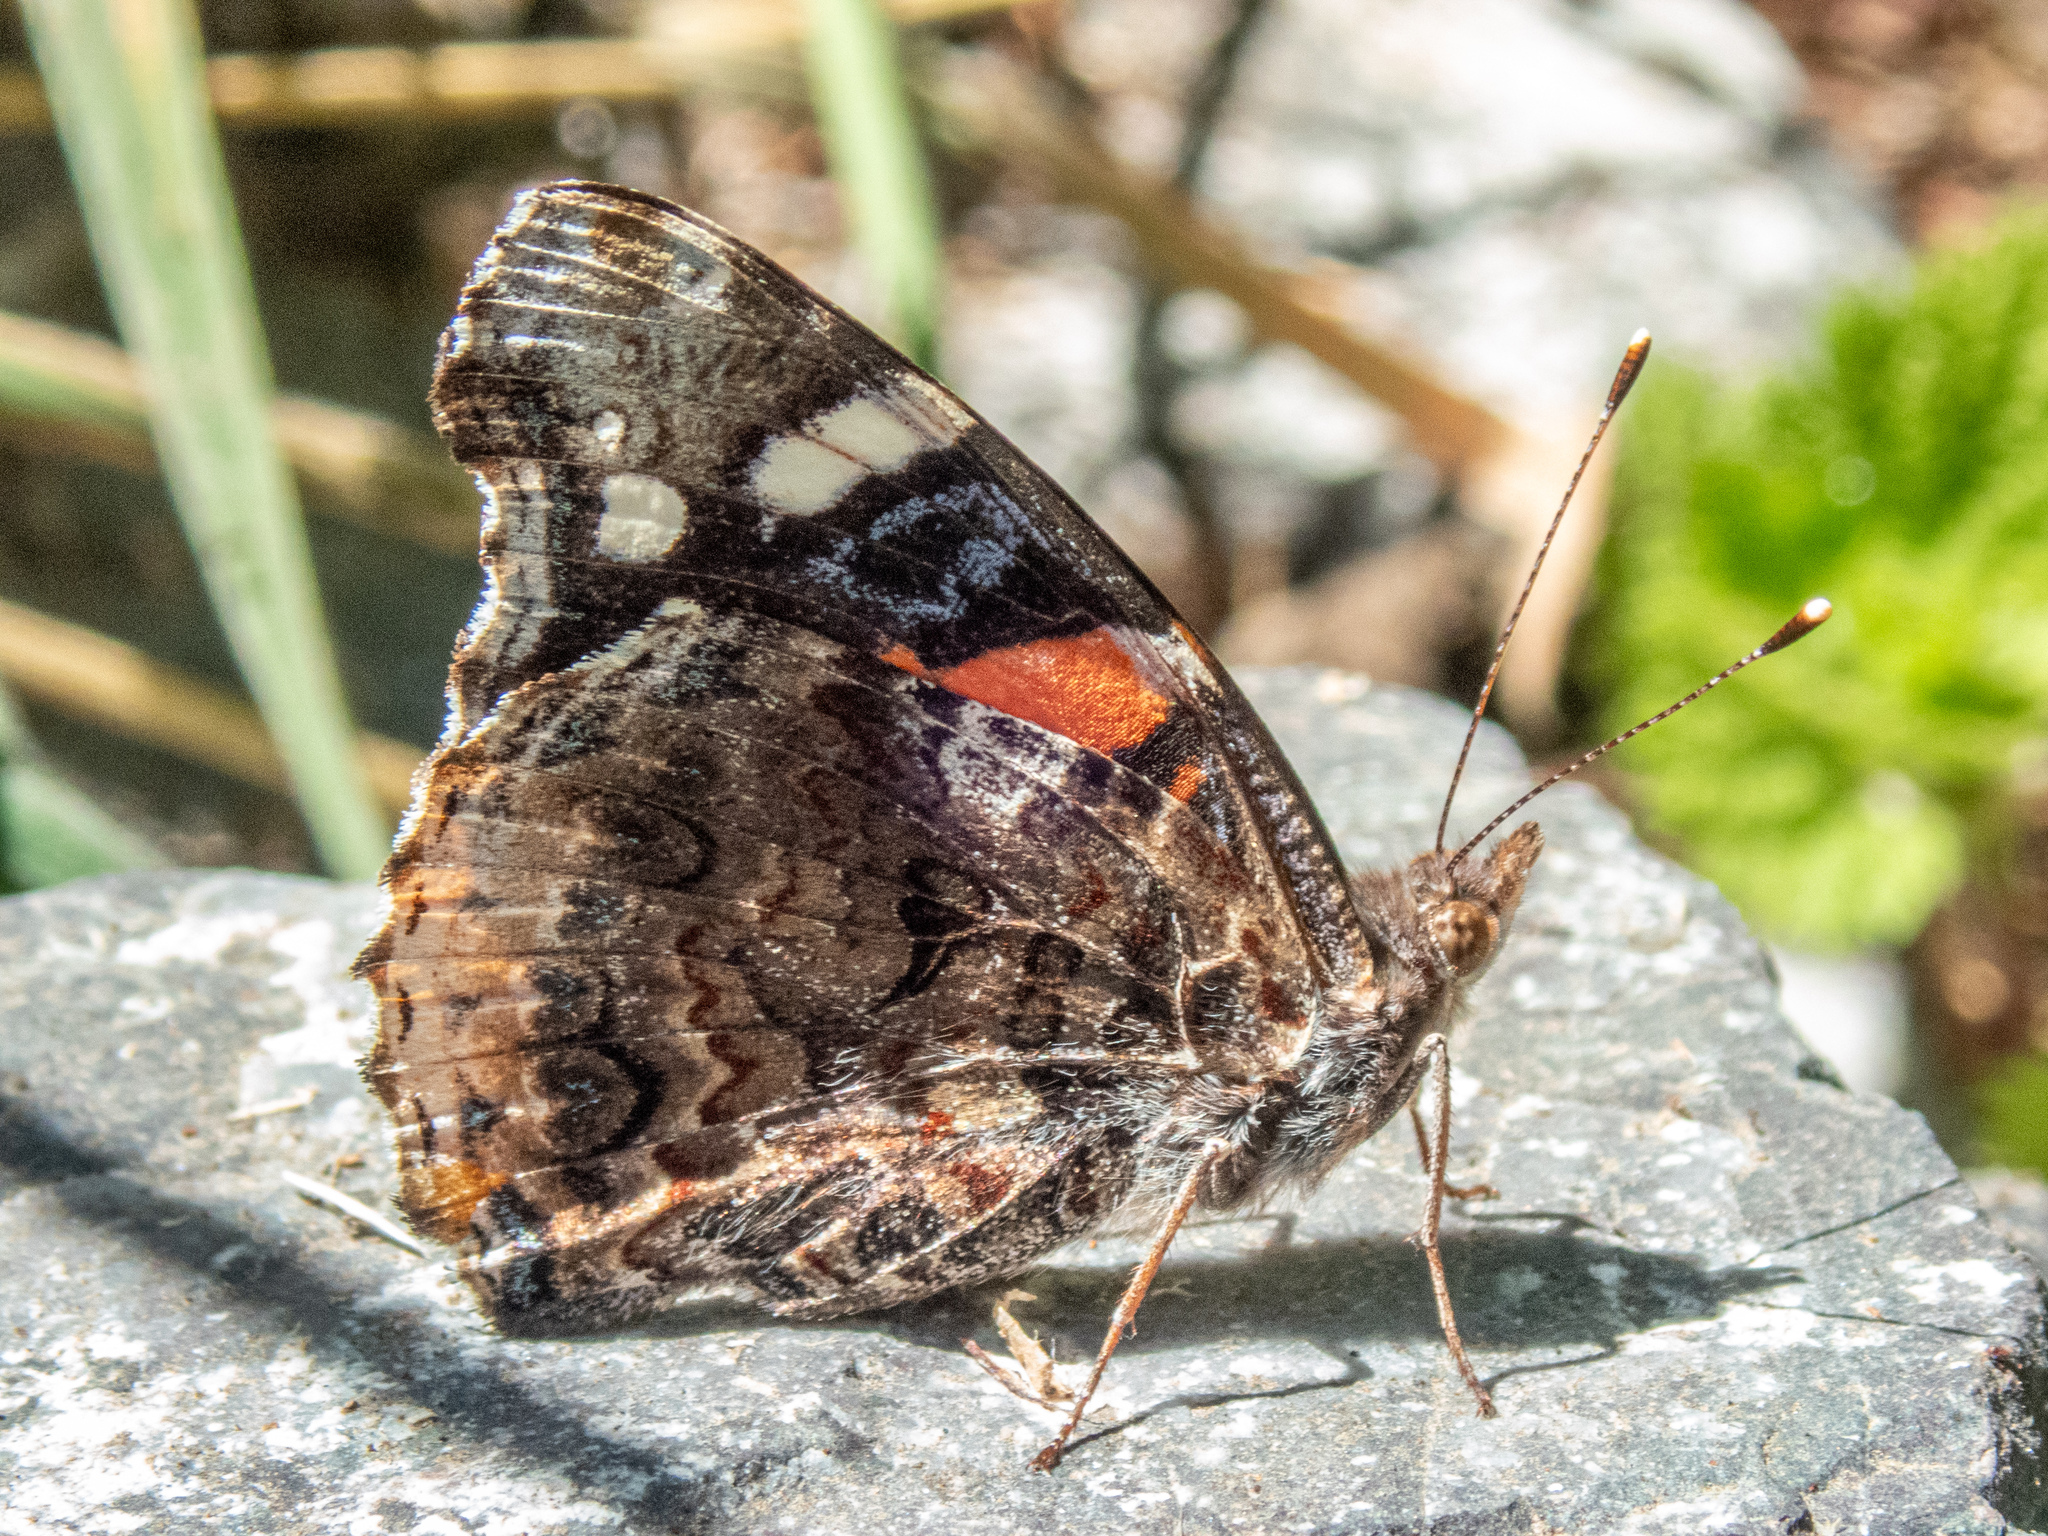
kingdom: Animalia
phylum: Arthropoda
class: Insecta
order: Lepidoptera
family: Nymphalidae
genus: Vanessa
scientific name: Vanessa atalanta
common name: Red admiral
